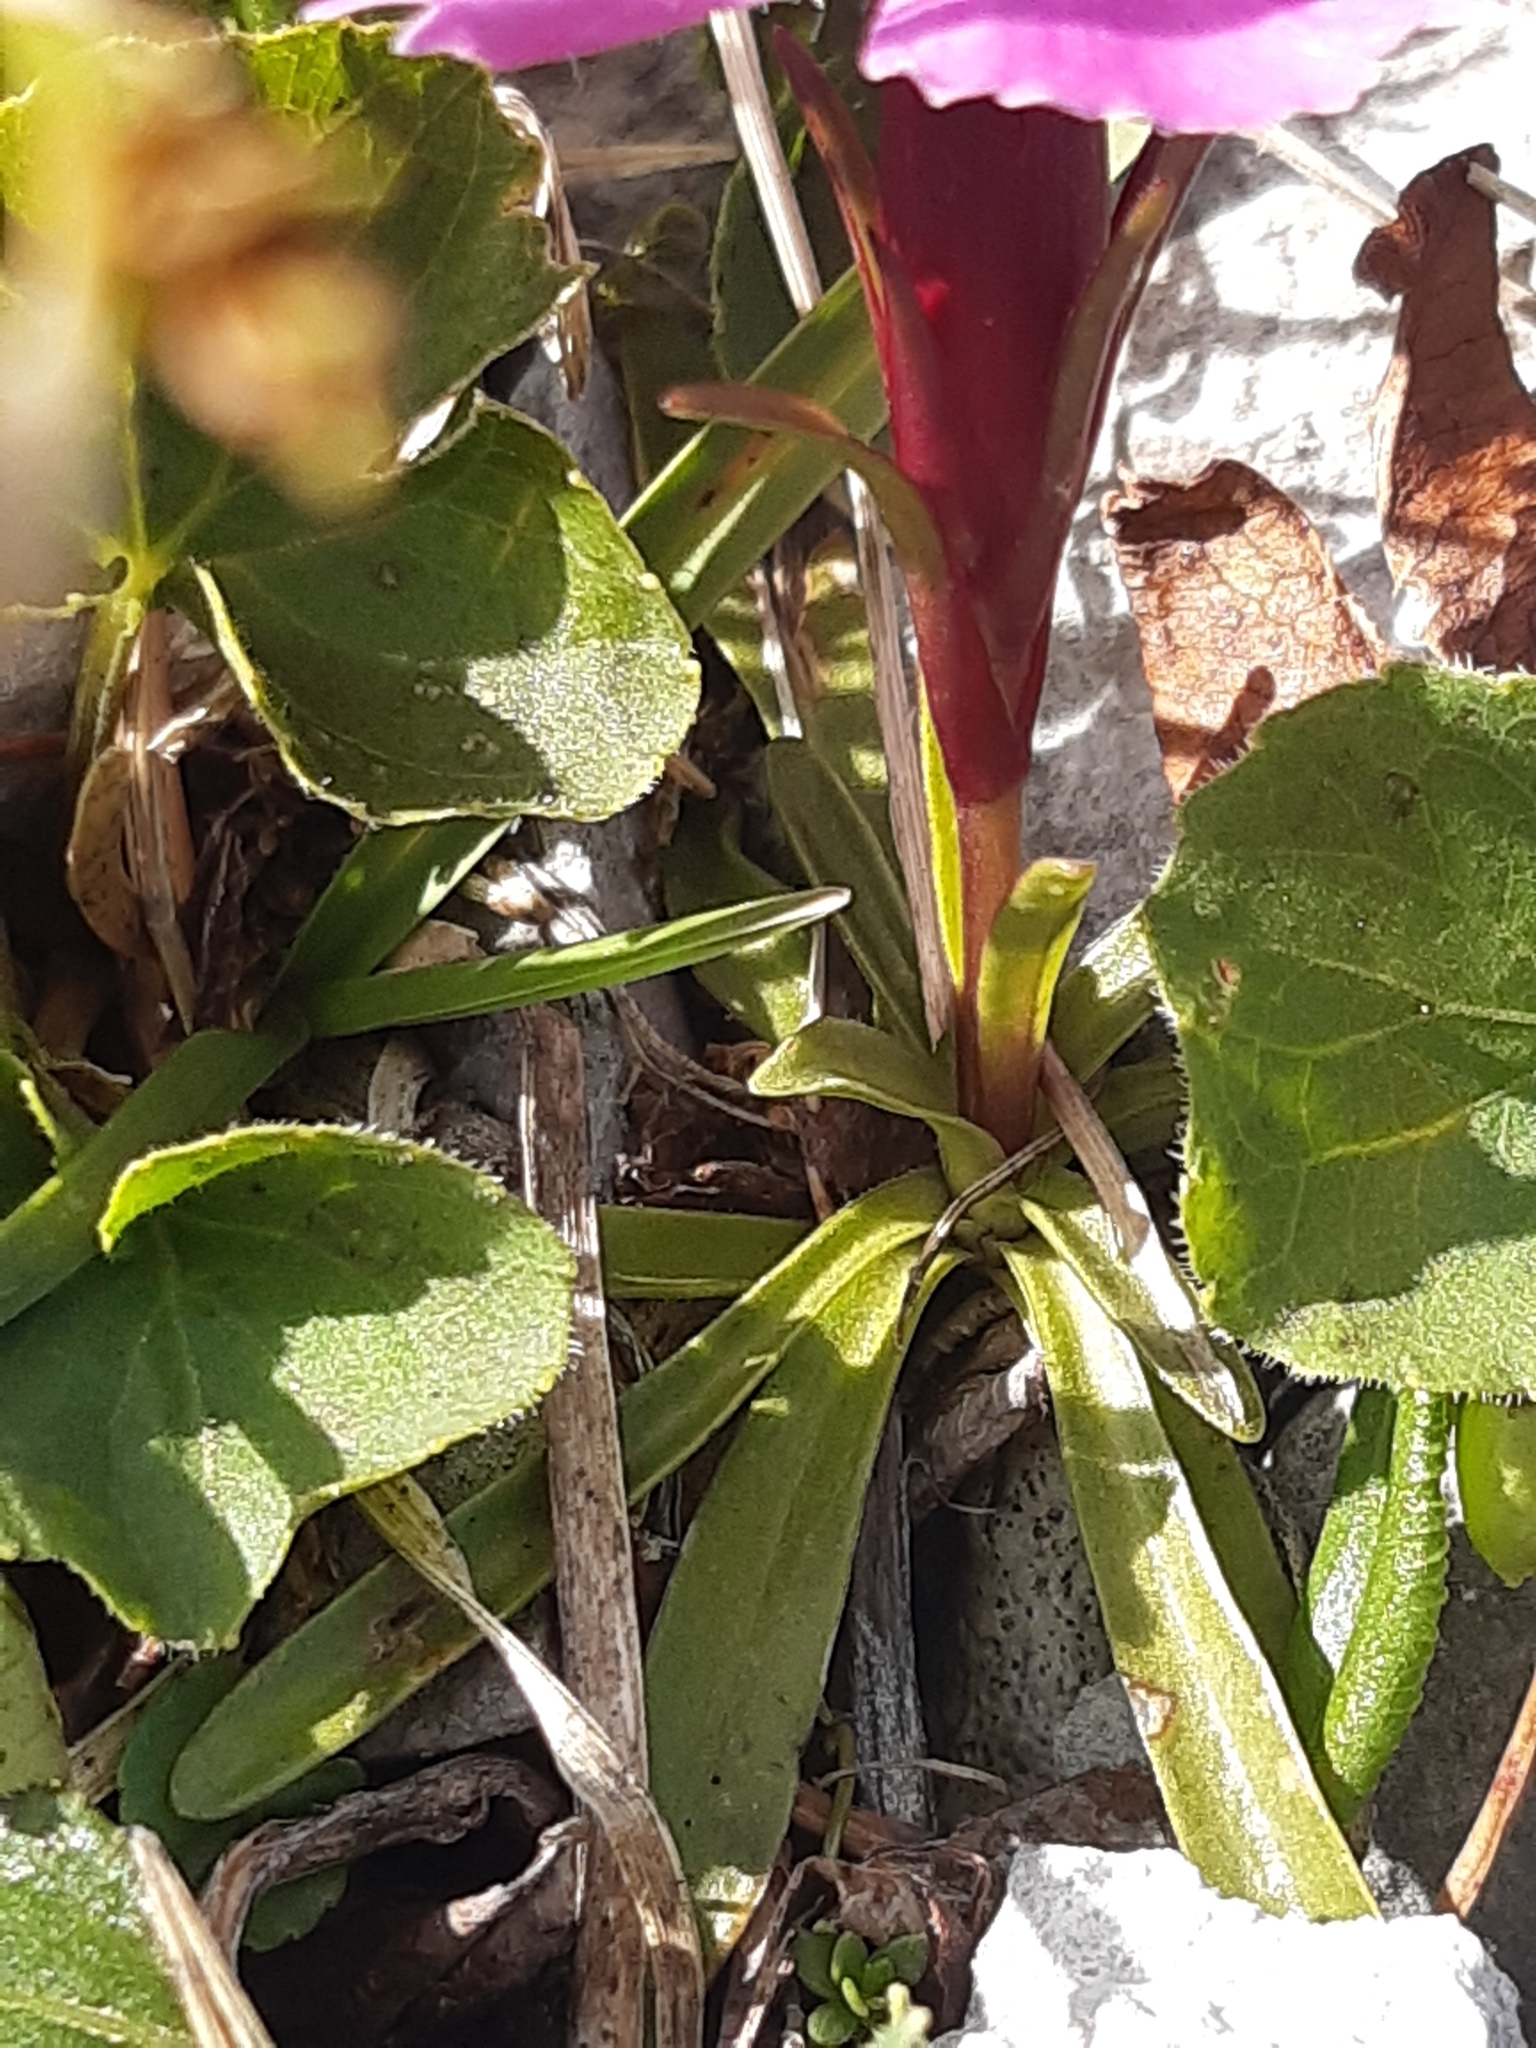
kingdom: Plantae
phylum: Tracheophyta
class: Magnoliopsida
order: Caryophyllales
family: Caryophyllaceae
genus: Dianthus
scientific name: Dianthus alpinus
